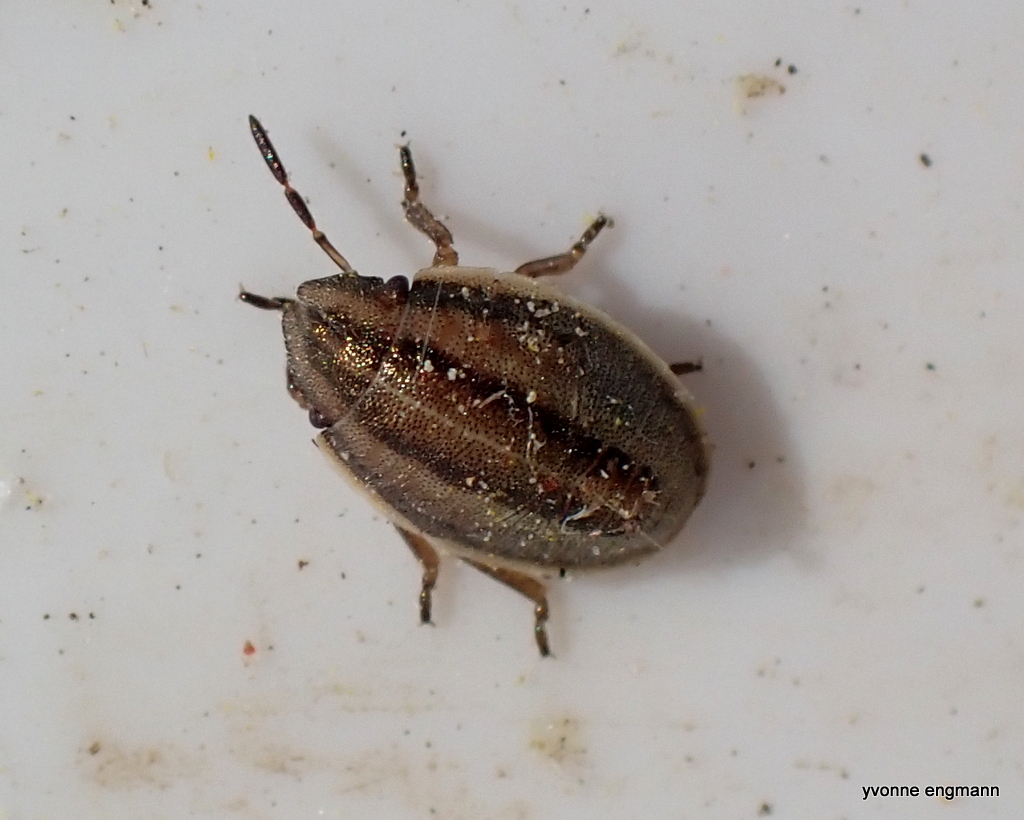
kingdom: Animalia
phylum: Arthropoda
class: Insecta
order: Hemiptera
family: Pentatomidae
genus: Aelia
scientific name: Aelia acuminata
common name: Bishop's mitre
